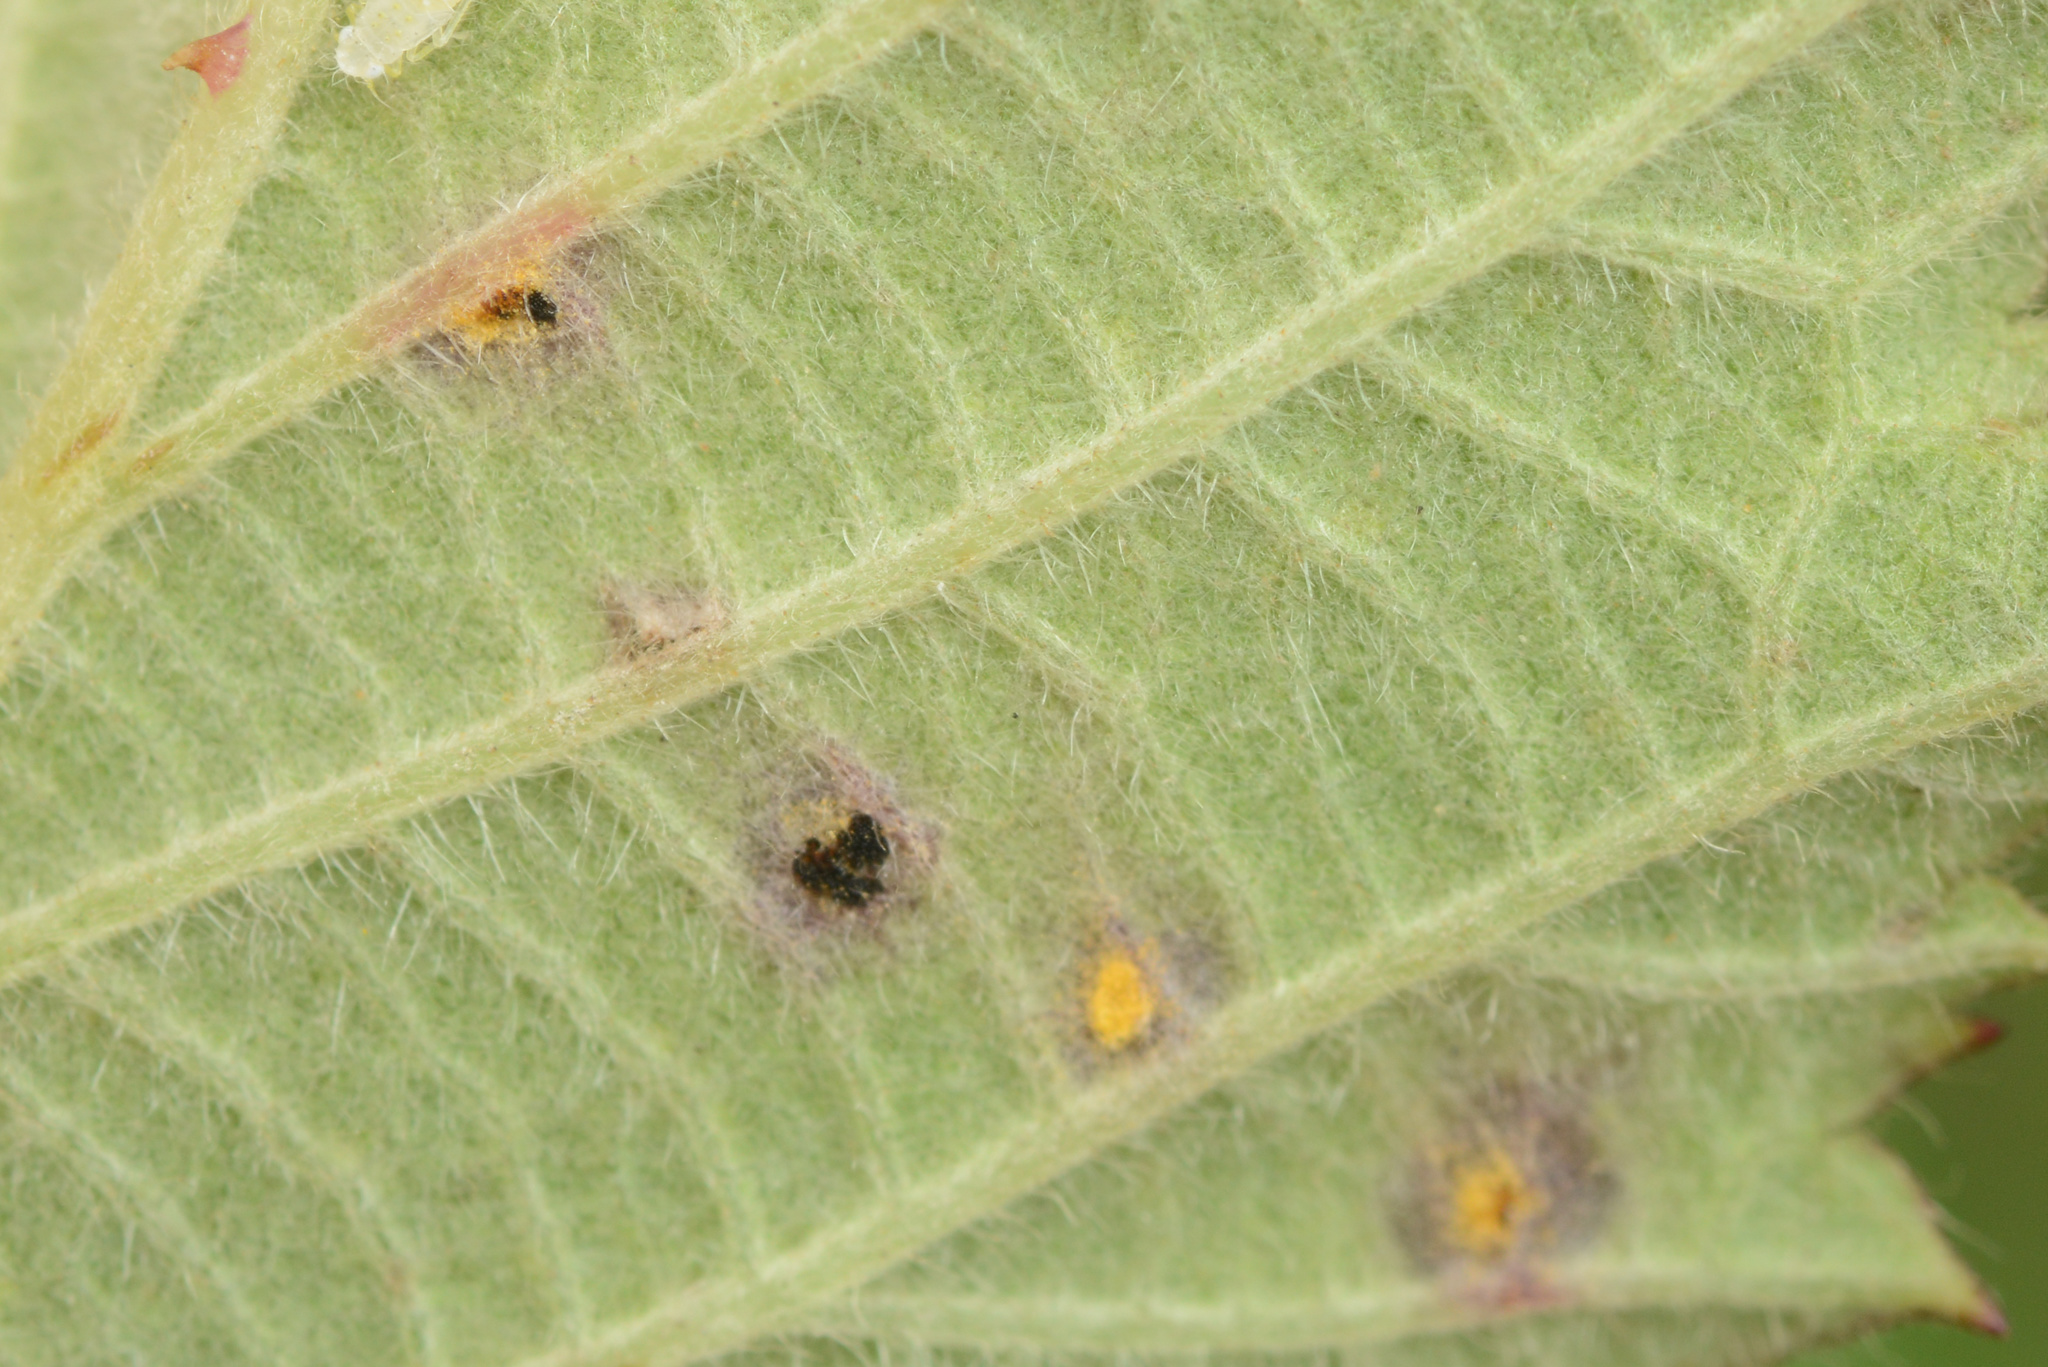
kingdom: Fungi
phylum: Basidiomycota
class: Pucciniomycetes
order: Pucciniales
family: Phragmidiaceae
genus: Phragmidium
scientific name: Phragmidium violaceum
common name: Violet bramble rust
